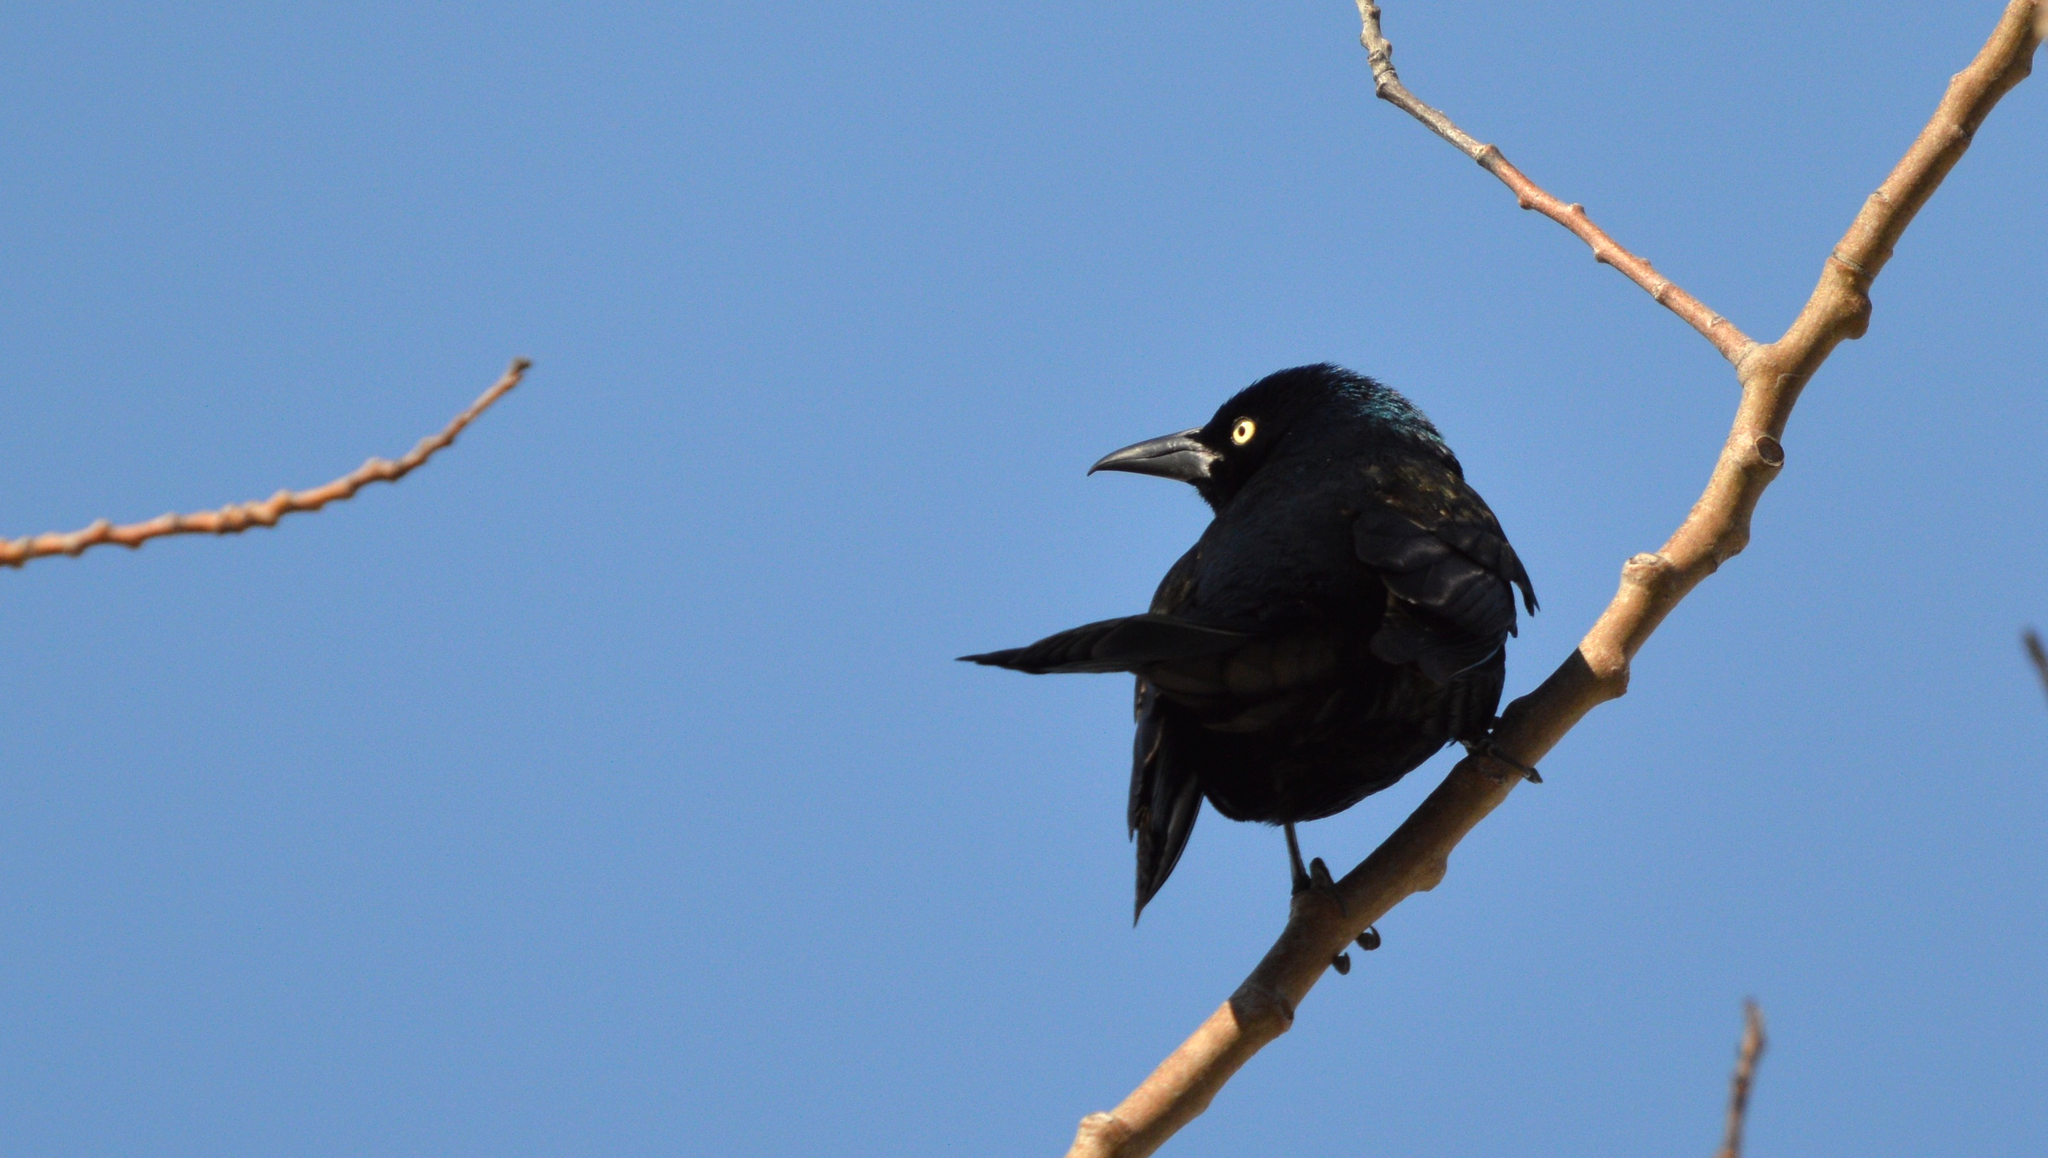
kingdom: Animalia
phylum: Chordata
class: Aves
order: Passeriformes
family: Icteridae
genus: Quiscalus
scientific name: Quiscalus quiscula
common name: Common grackle
